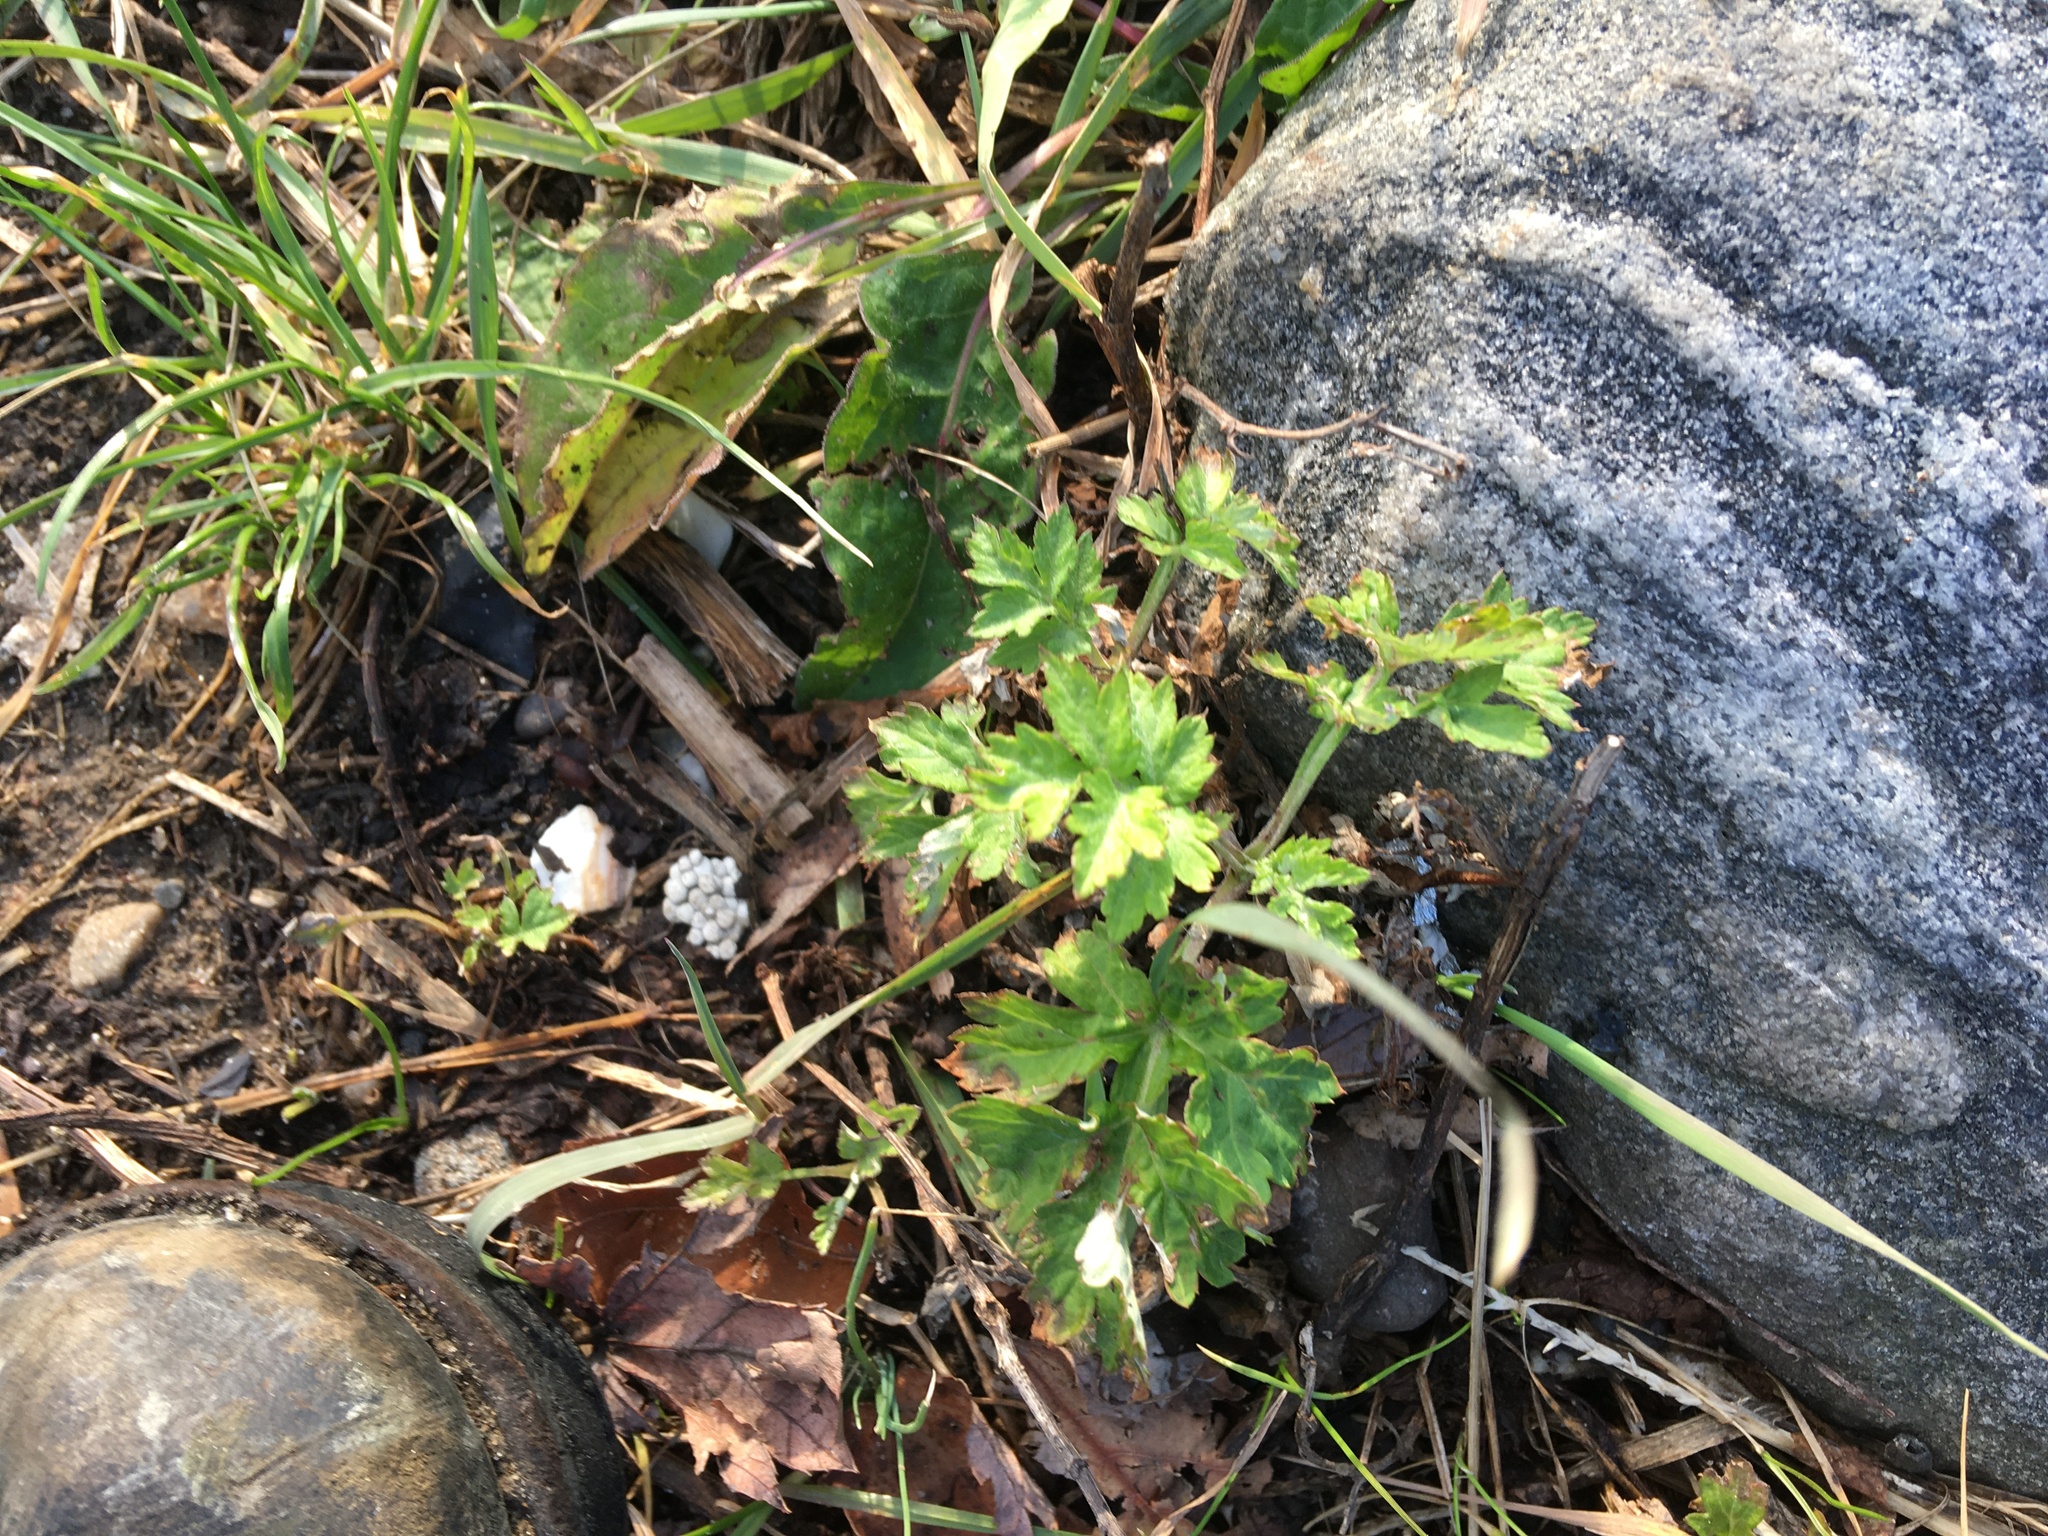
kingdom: Plantae
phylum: Tracheophyta
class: Magnoliopsida
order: Asterales
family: Asteraceae
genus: Artemisia
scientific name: Artemisia vulgaris
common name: Mugwort
